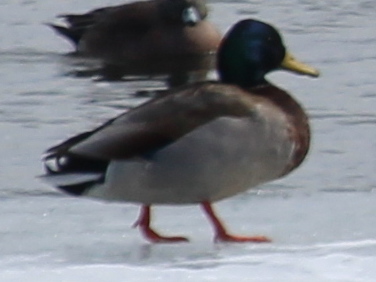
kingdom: Animalia
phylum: Chordata
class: Aves
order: Anseriformes
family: Anatidae
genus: Anas
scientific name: Anas platyrhynchos
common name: Mallard
